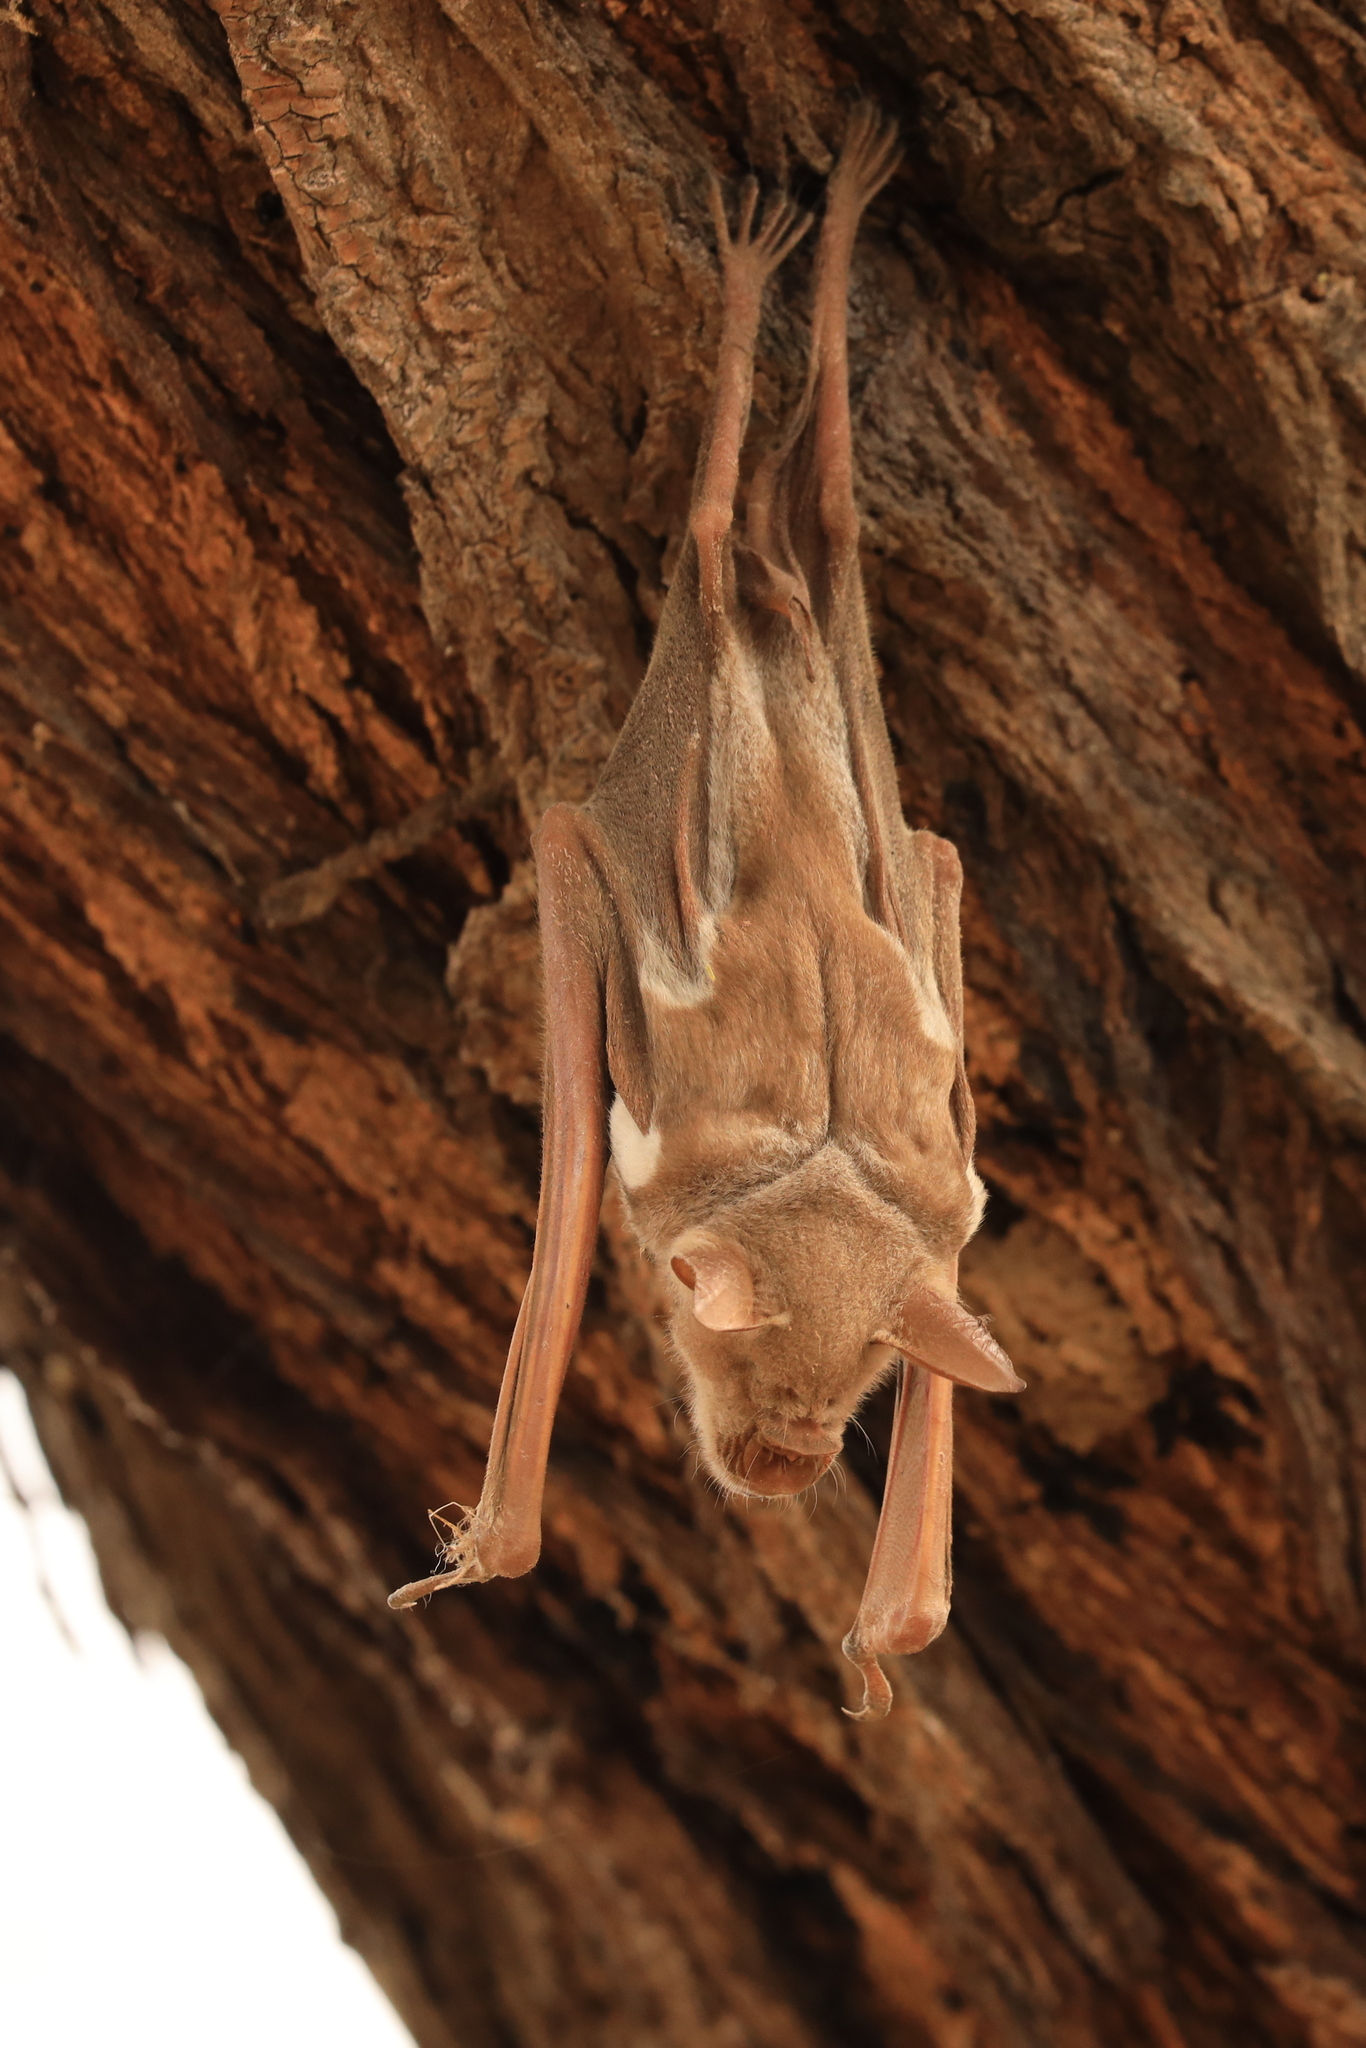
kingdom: Animalia
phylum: Chordata
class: Mammalia
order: Chiroptera
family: Hipposideridae
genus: Macronycteris
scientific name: Macronycteris vittatus
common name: Striped leaf-nosed bat
